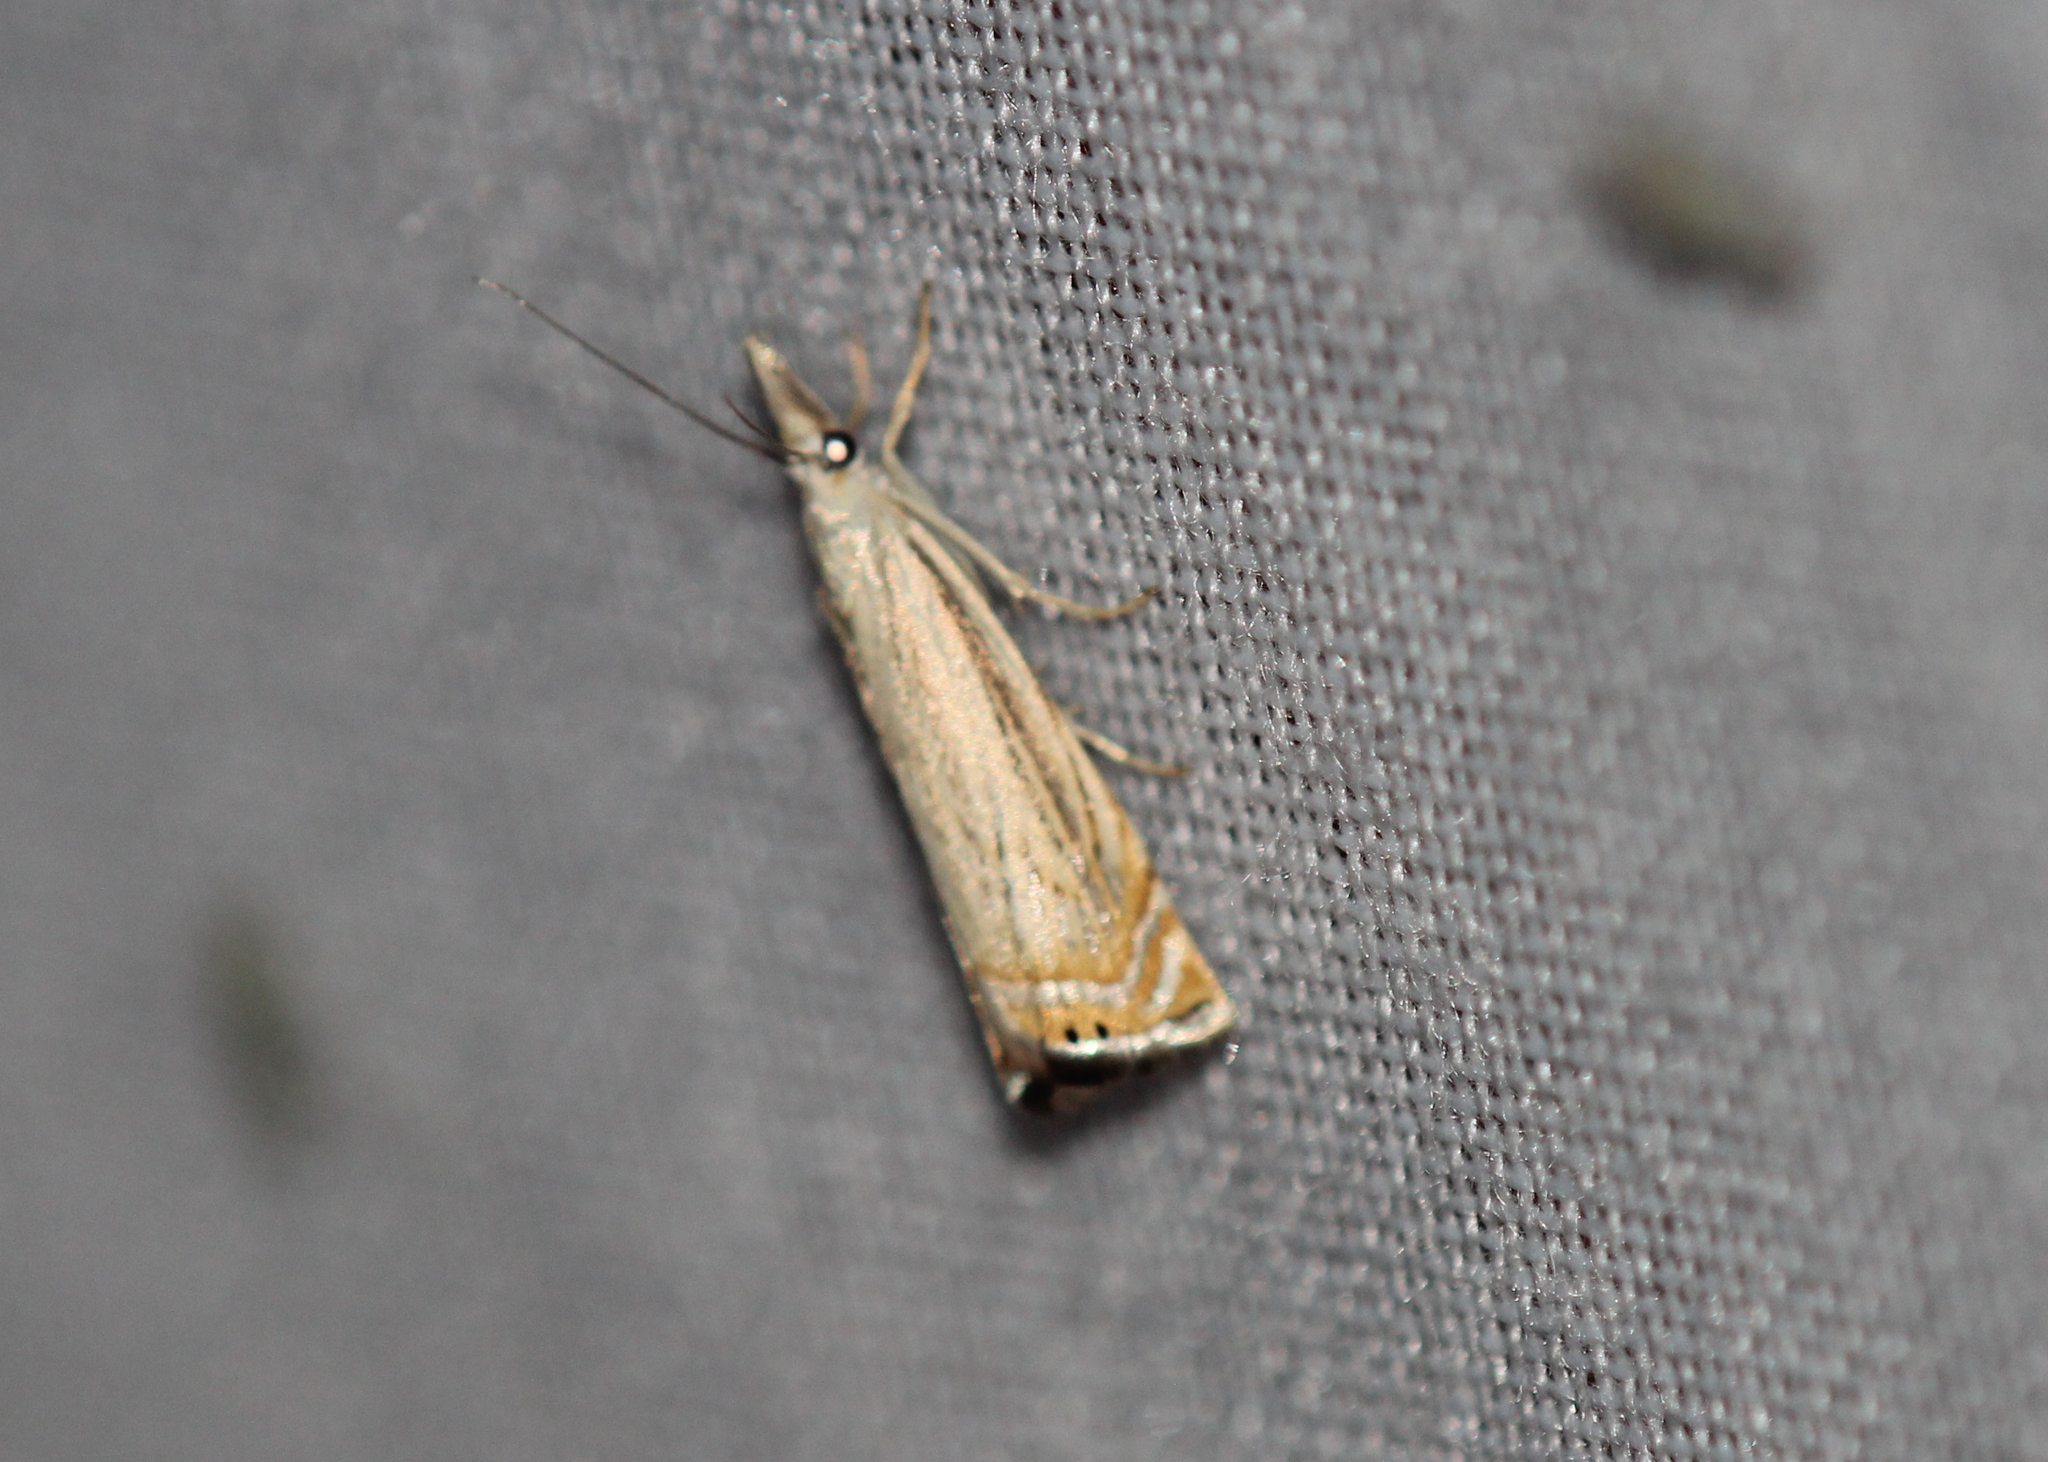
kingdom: Animalia
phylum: Arthropoda
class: Insecta
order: Lepidoptera
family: Crambidae
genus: Chrysoteuchia
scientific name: Chrysoteuchia topiarius
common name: Topiary grass-veneer
